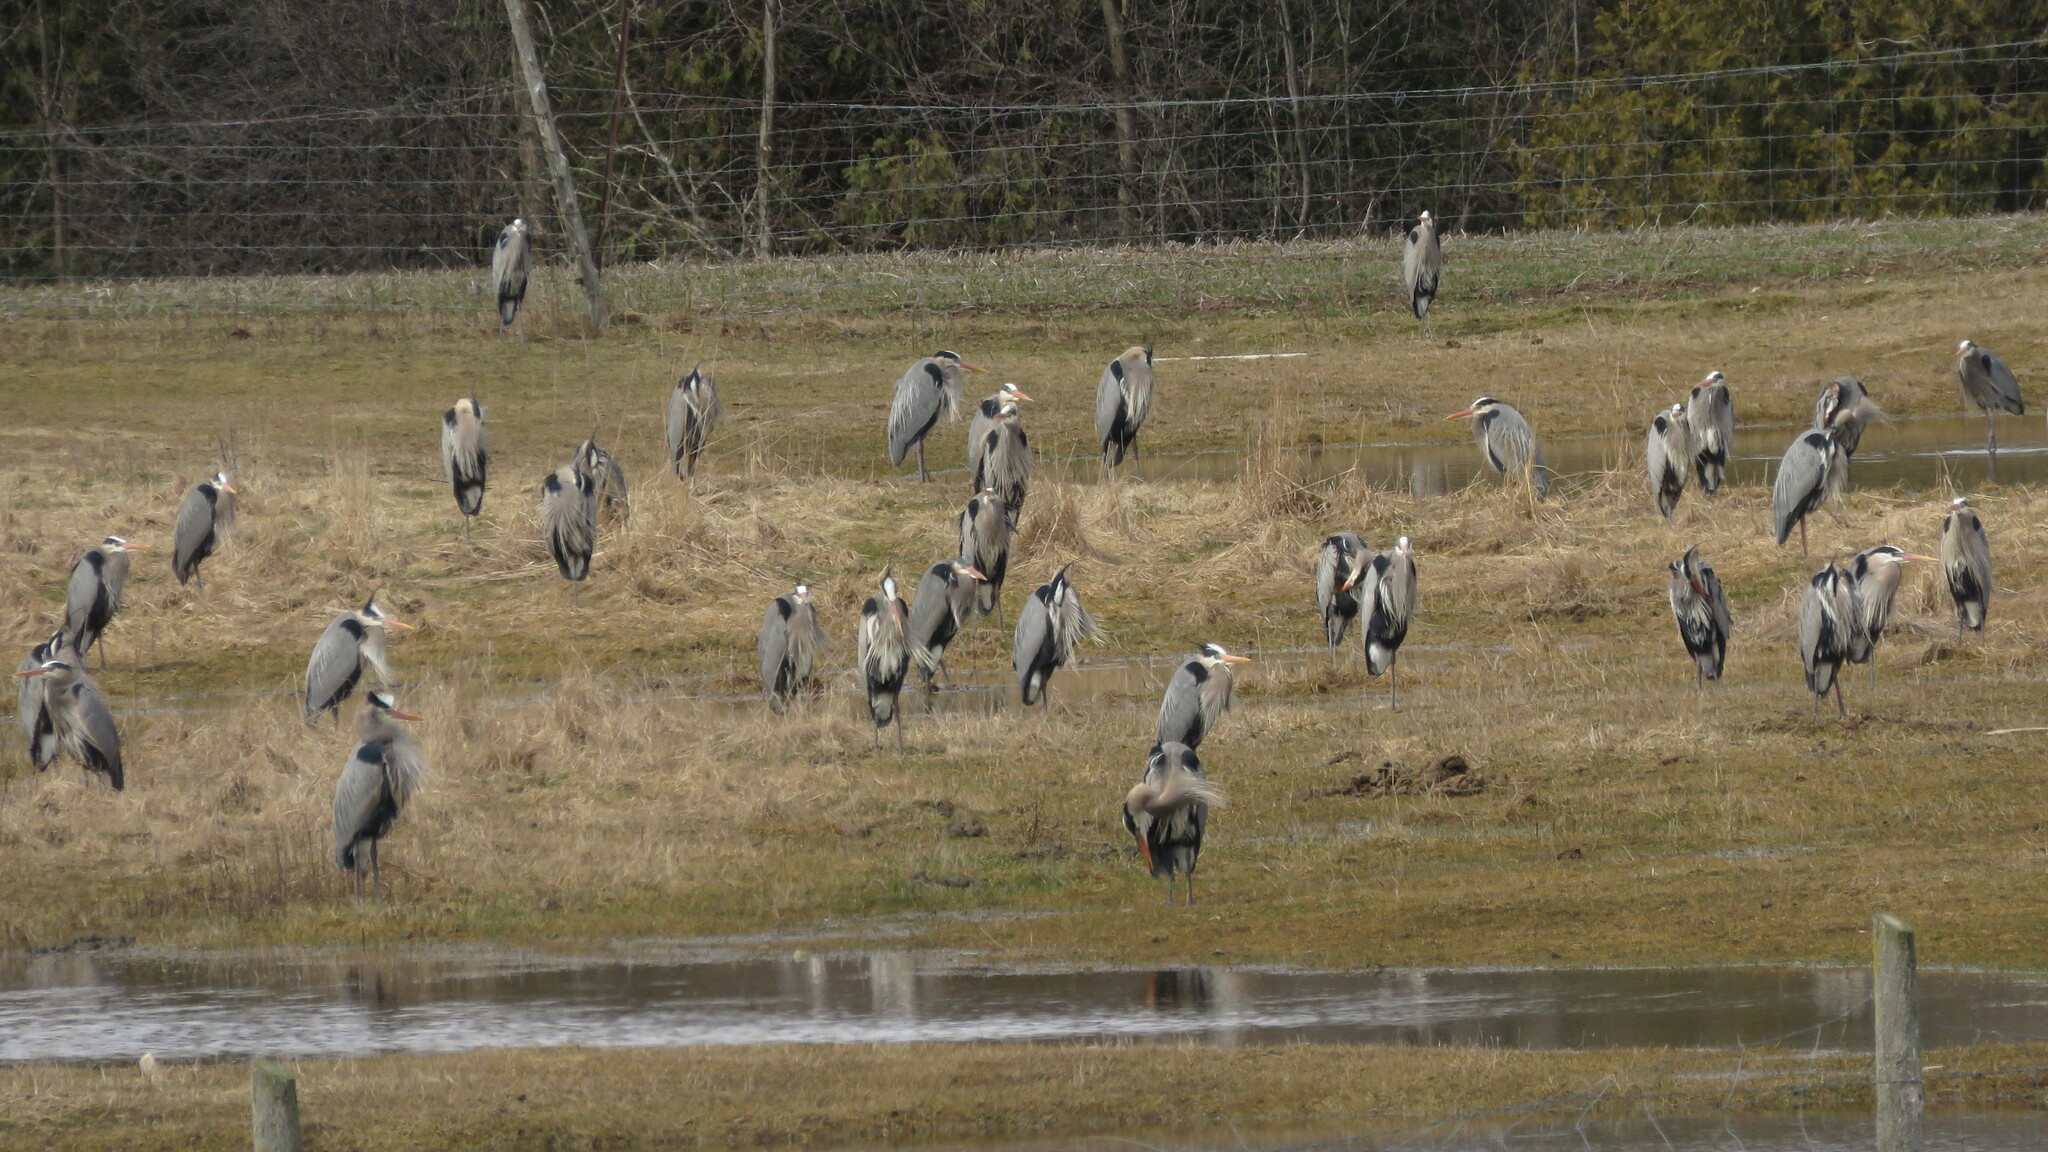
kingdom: Animalia
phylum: Chordata
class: Aves
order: Pelecaniformes
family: Ardeidae
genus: Ardea
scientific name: Ardea herodias
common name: Great blue heron
